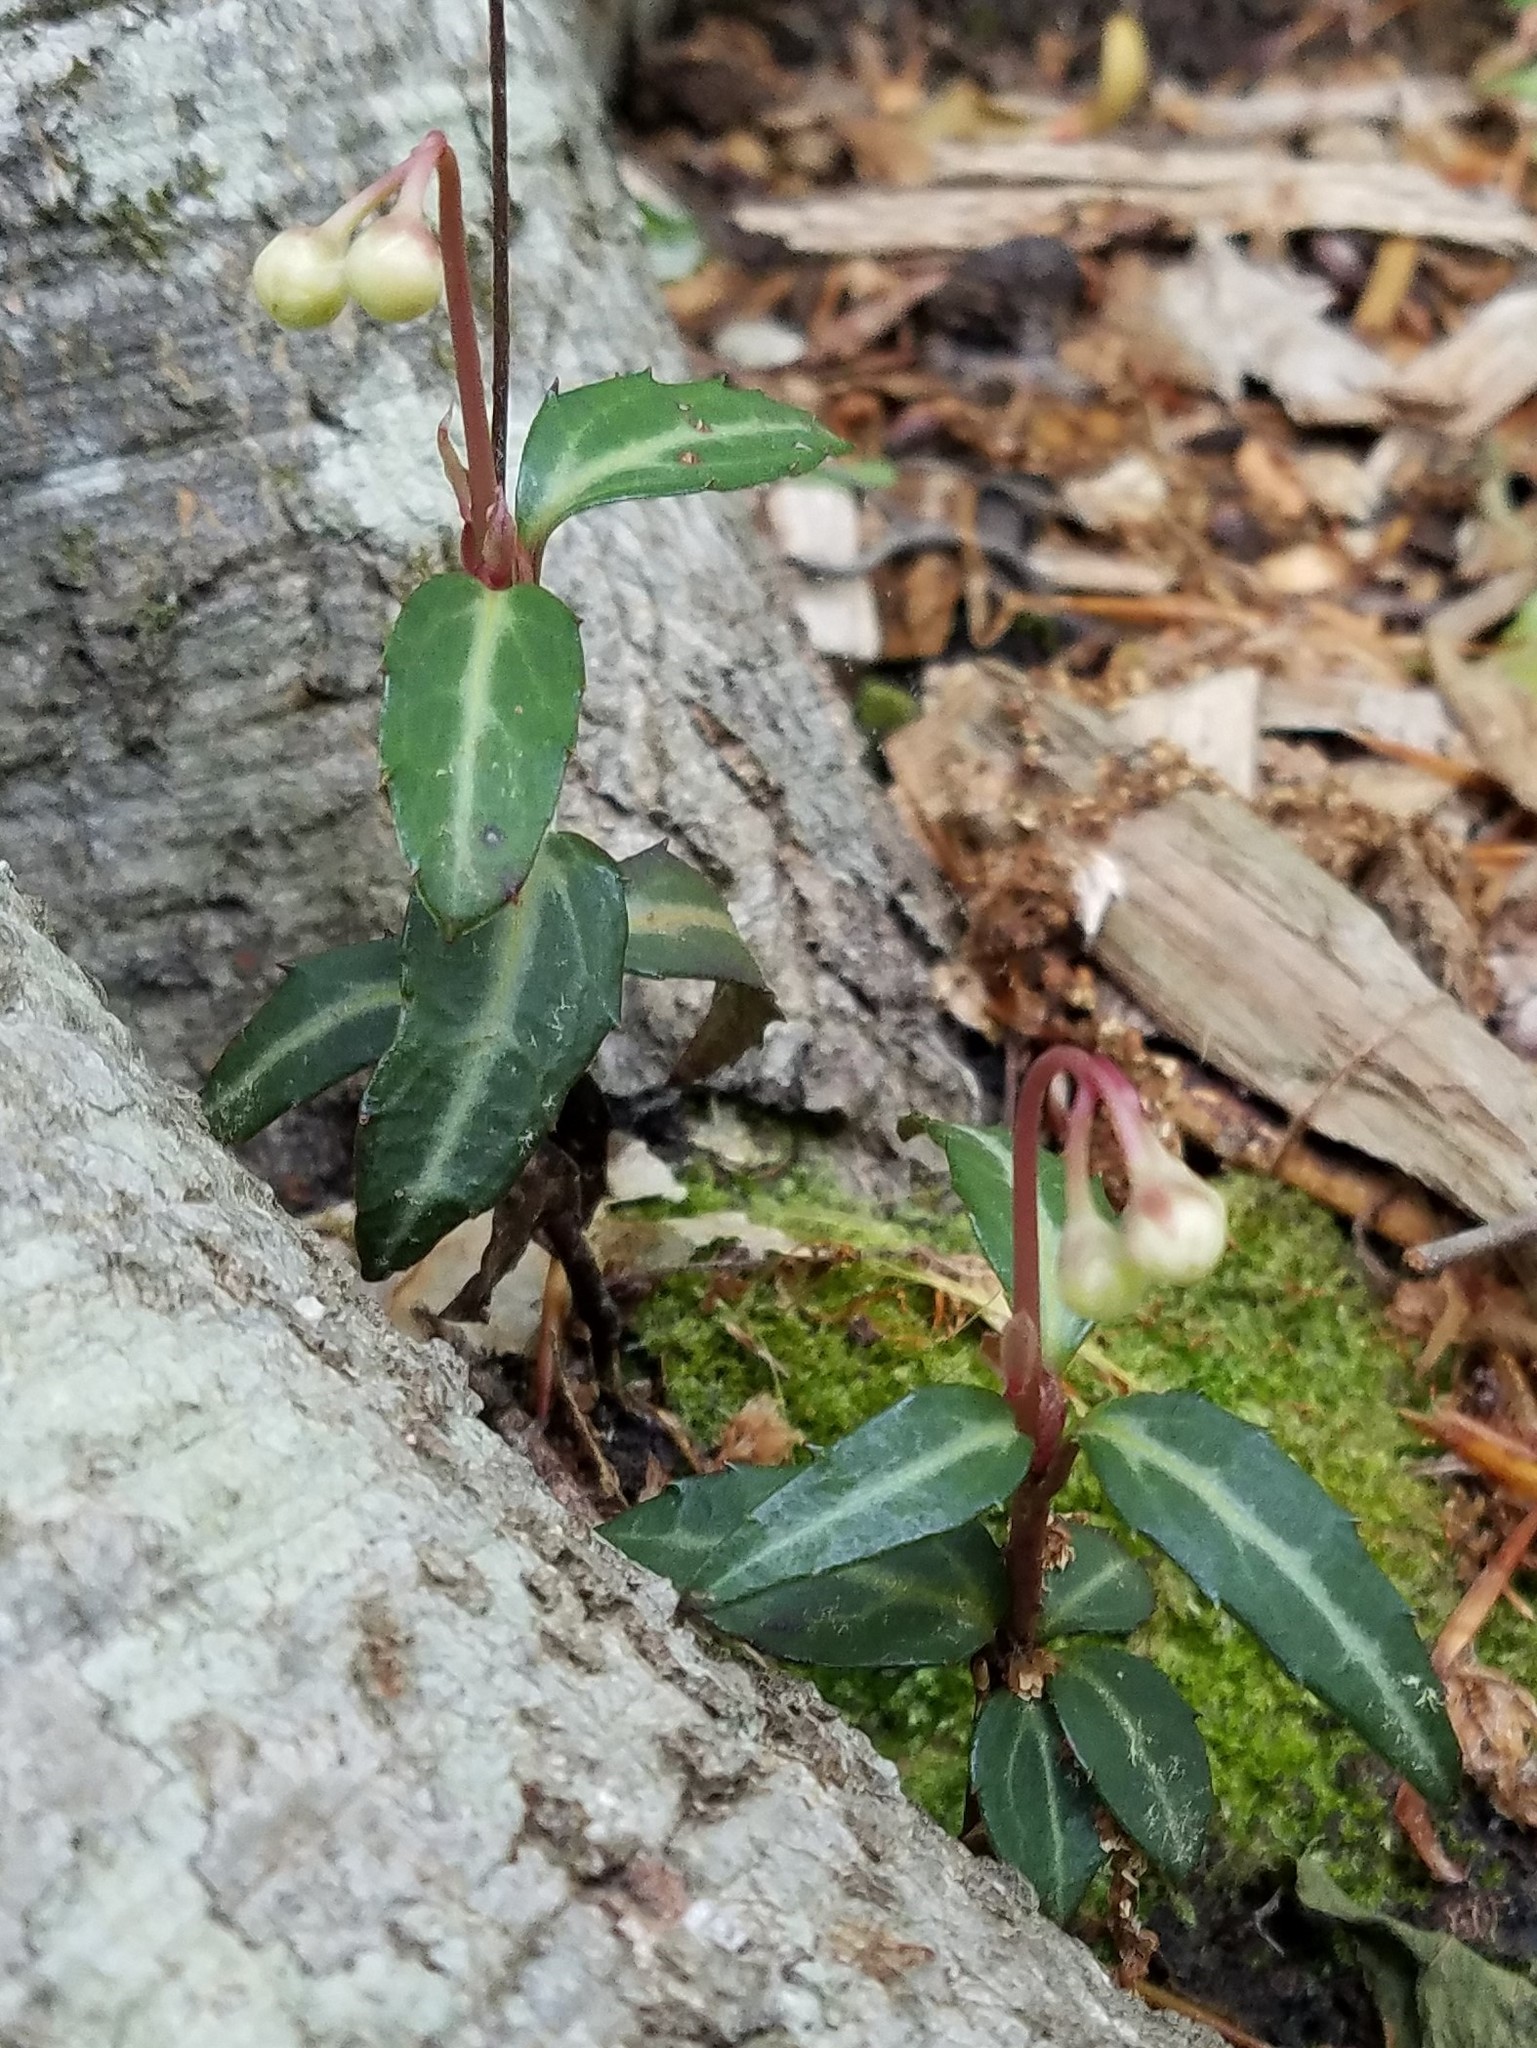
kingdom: Plantae
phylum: Tracheophyta
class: Magnoliopsida
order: Ericales
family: Ericaceae
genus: Chimaphila
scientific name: Chimaphila maculata
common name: Spotted pipsissewa
